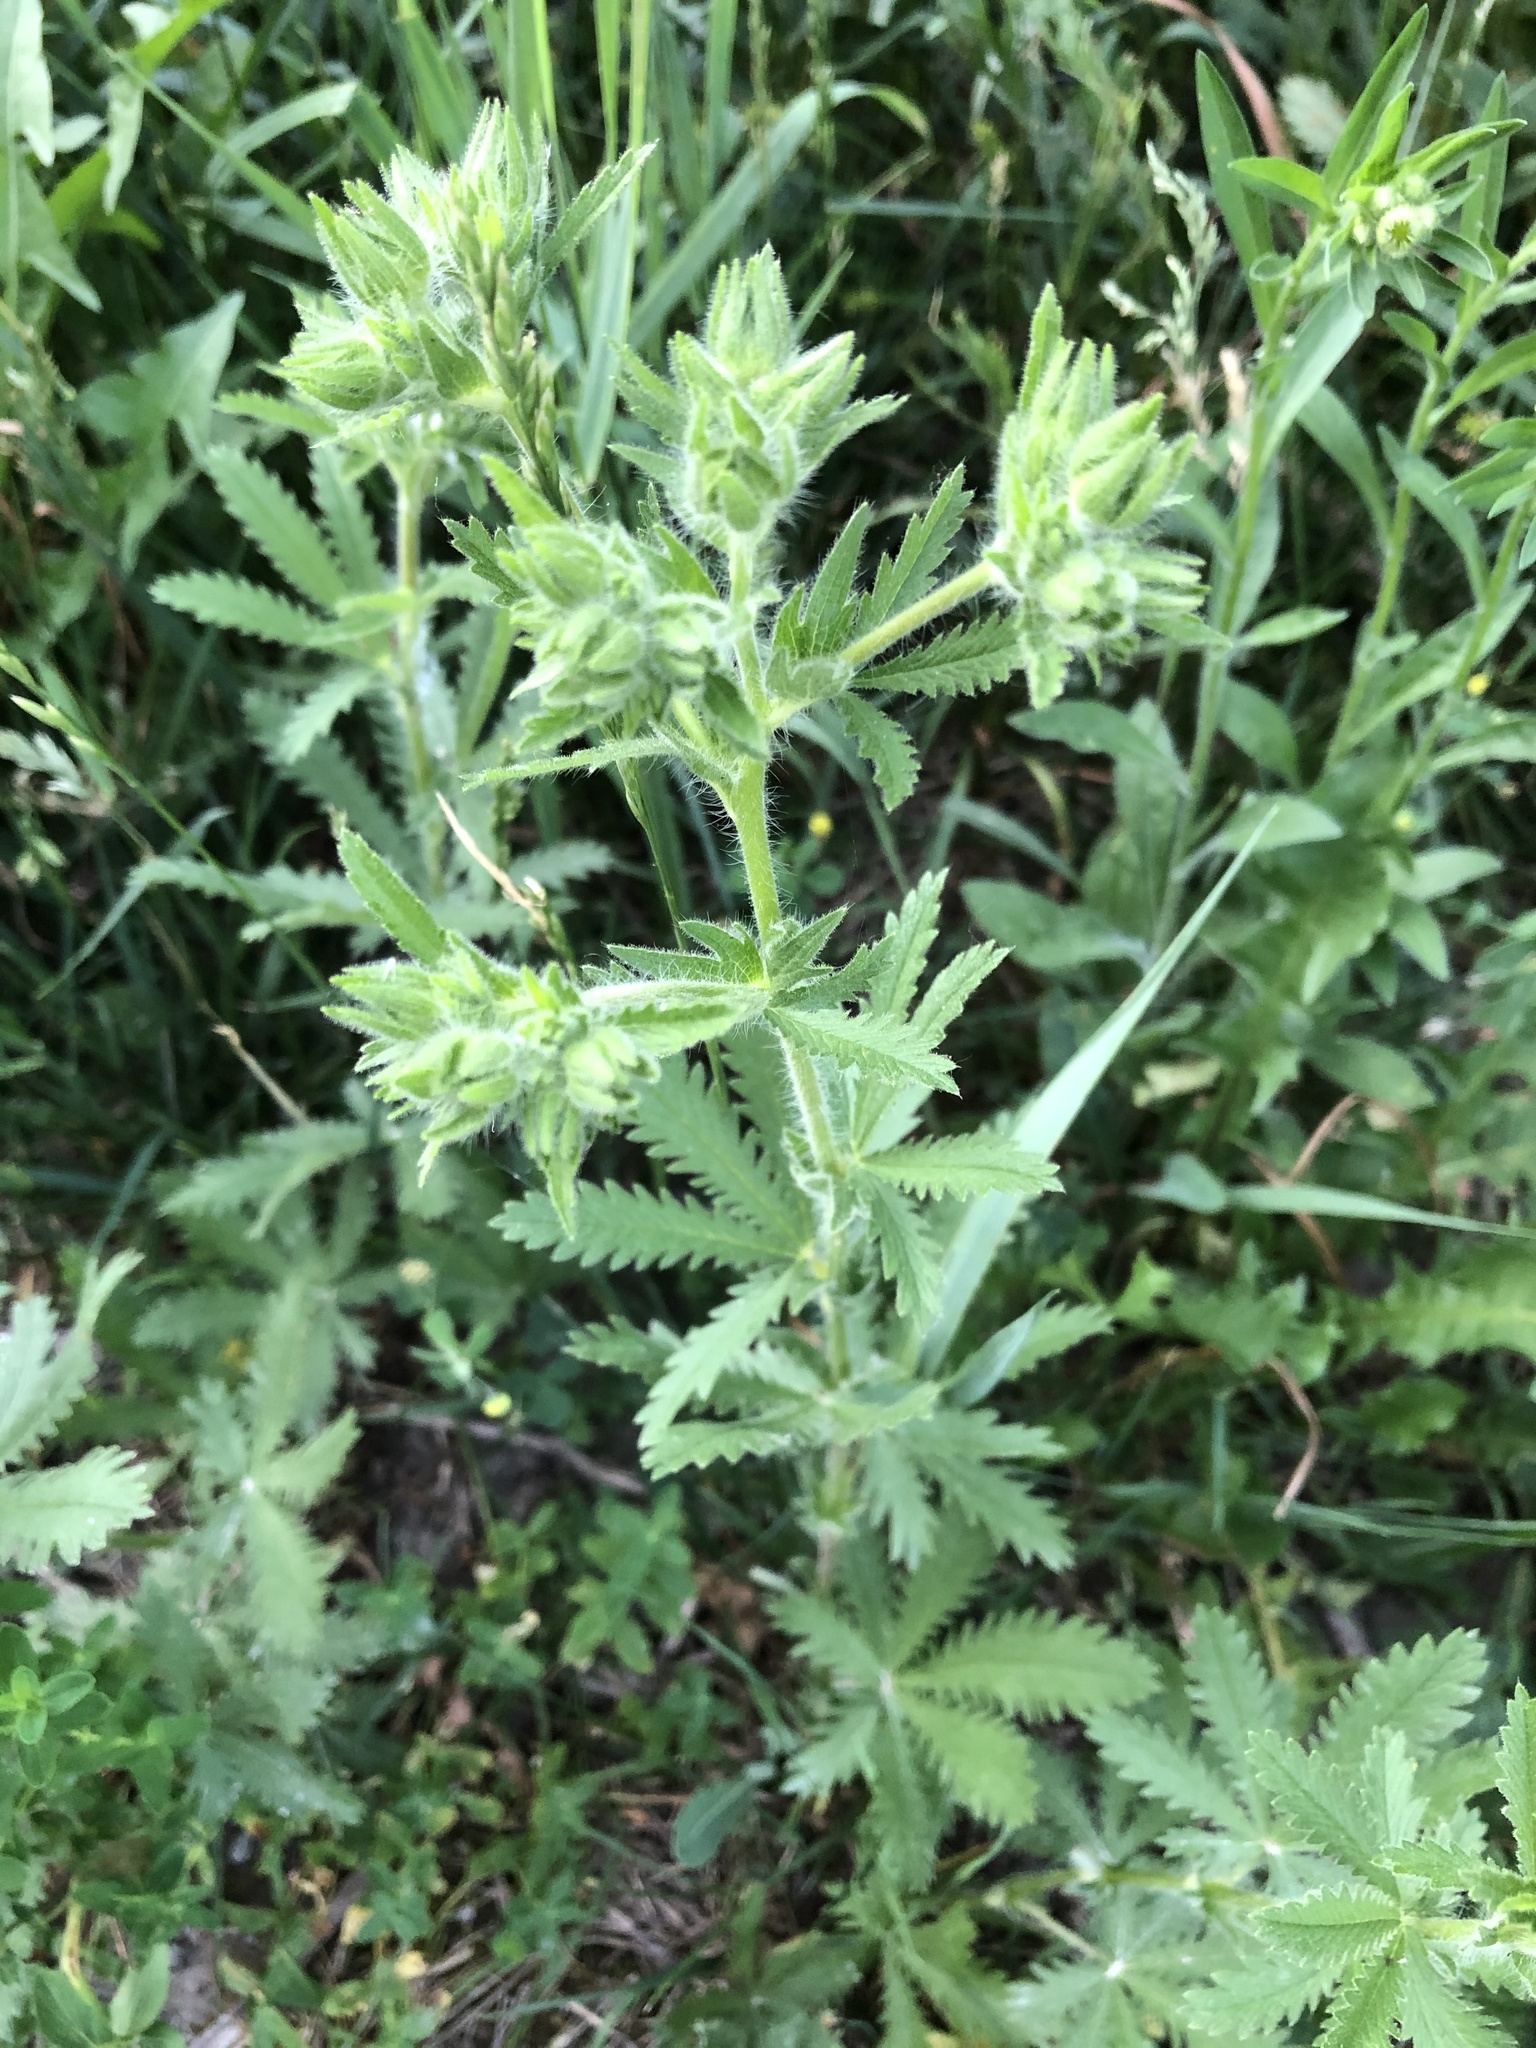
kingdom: Plantae
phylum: Tracheophyta
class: Magnoliopsida
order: Rosales
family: Rosaceae
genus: Potentilla
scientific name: Potentilla recta
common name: Sulphur cinquefoil
